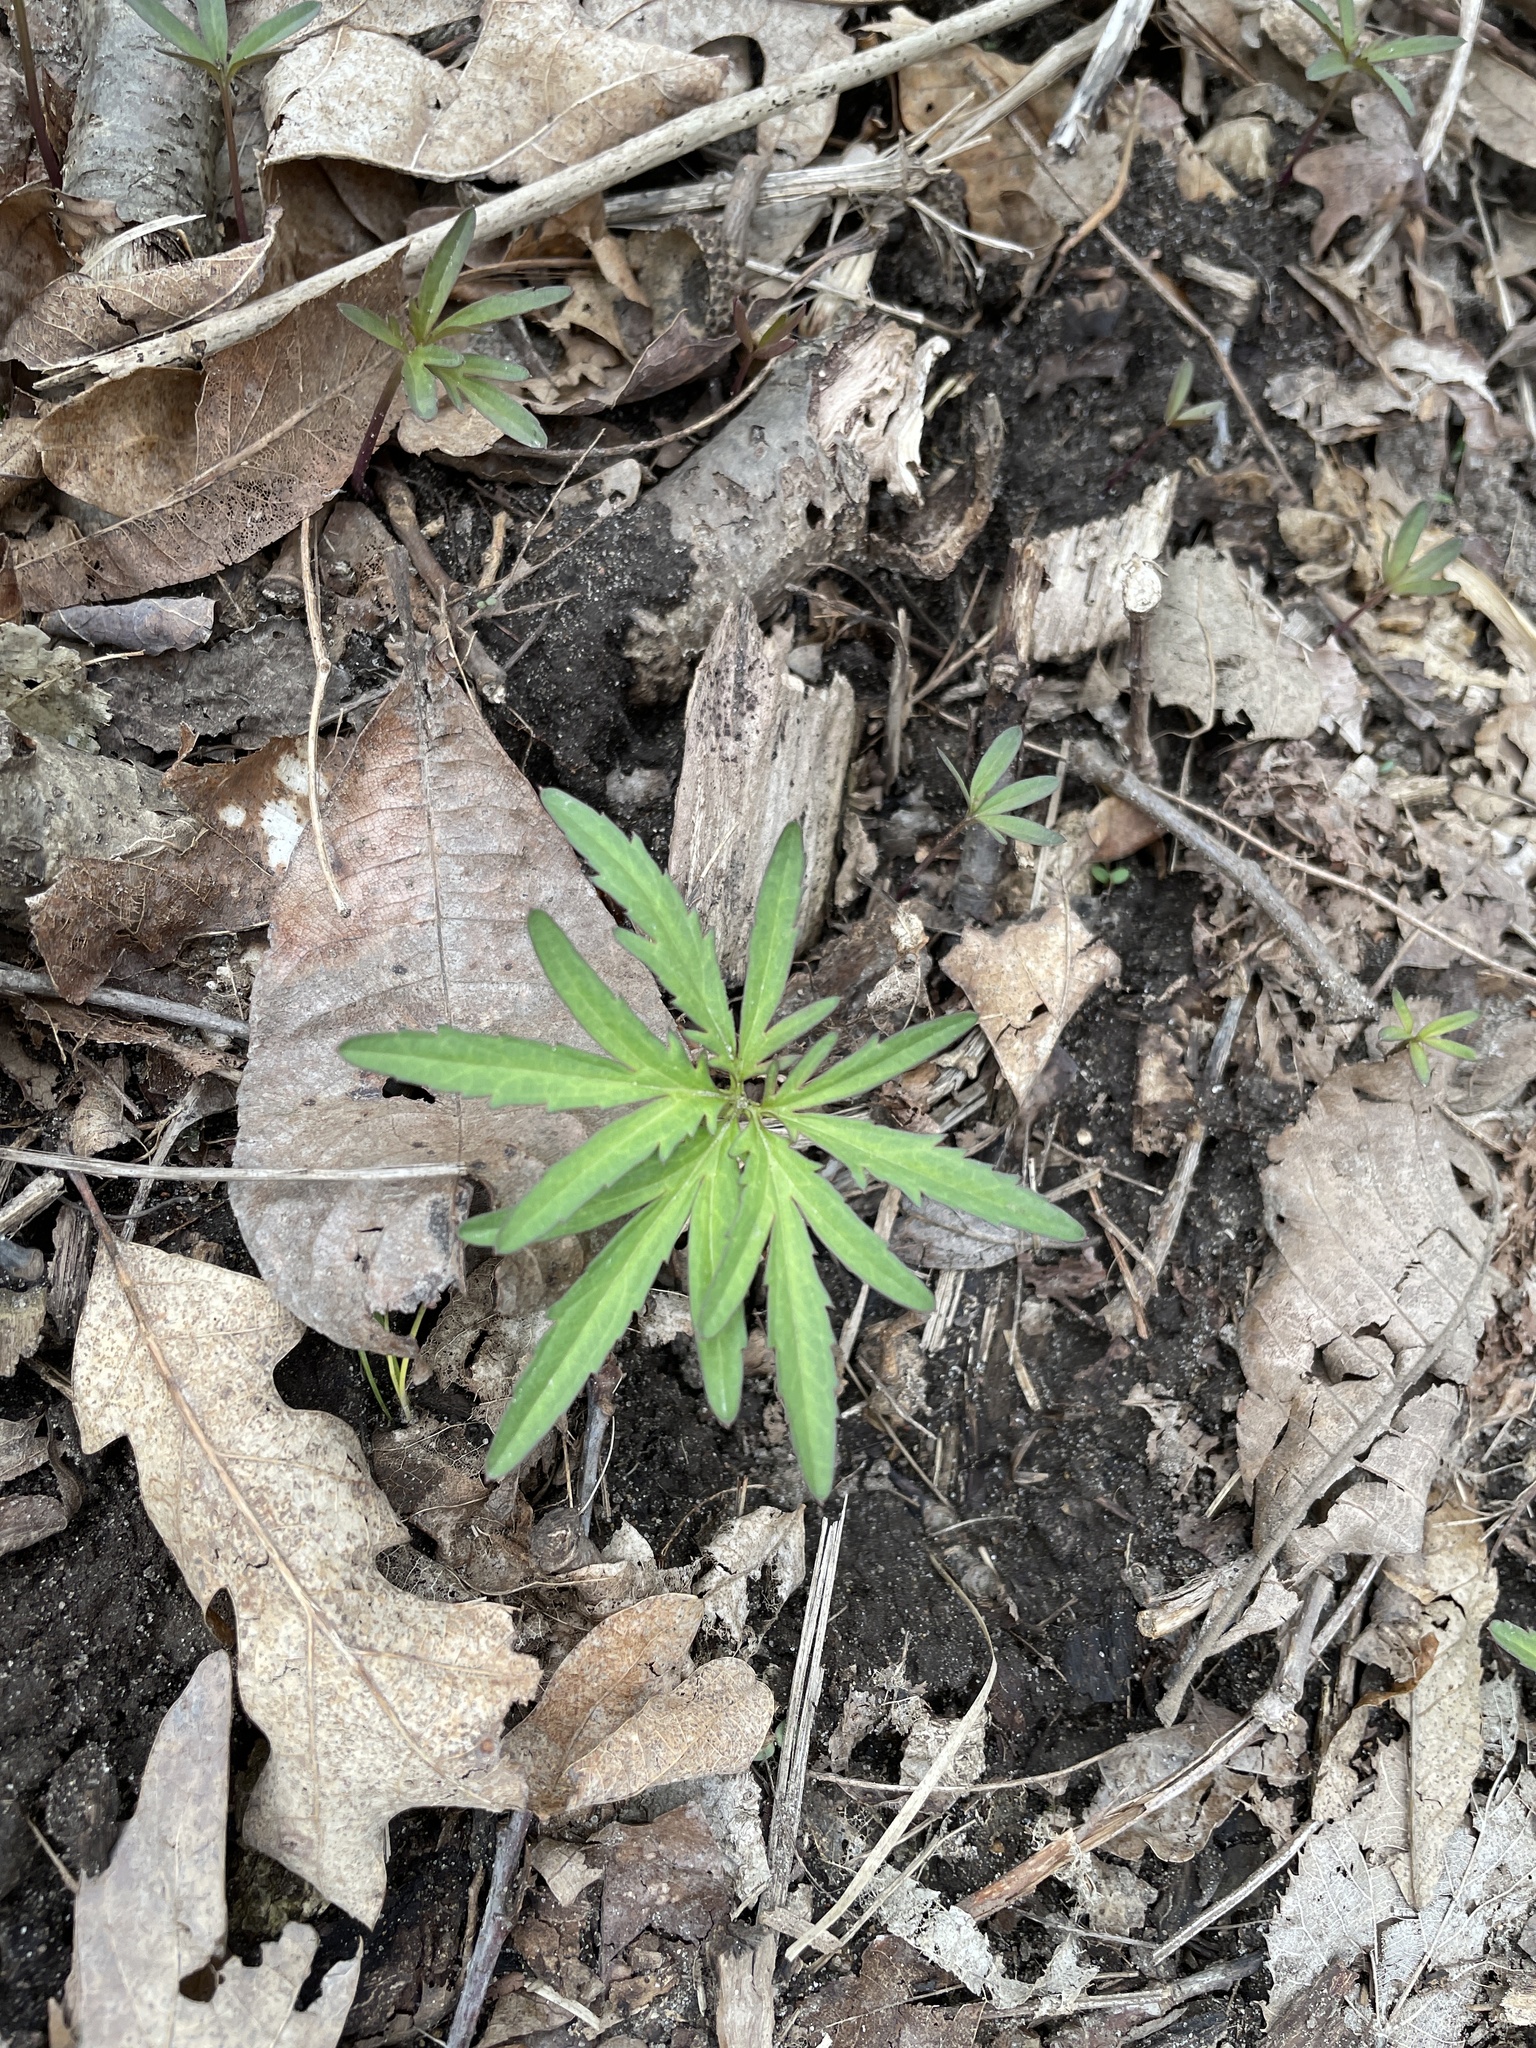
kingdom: Plantae
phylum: Tracheophyta
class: Magnoliopsida
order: Brassicales
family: Brassicaceae
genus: Cardamine
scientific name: Cardamine concatenata
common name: Cut-leaf toothcup
